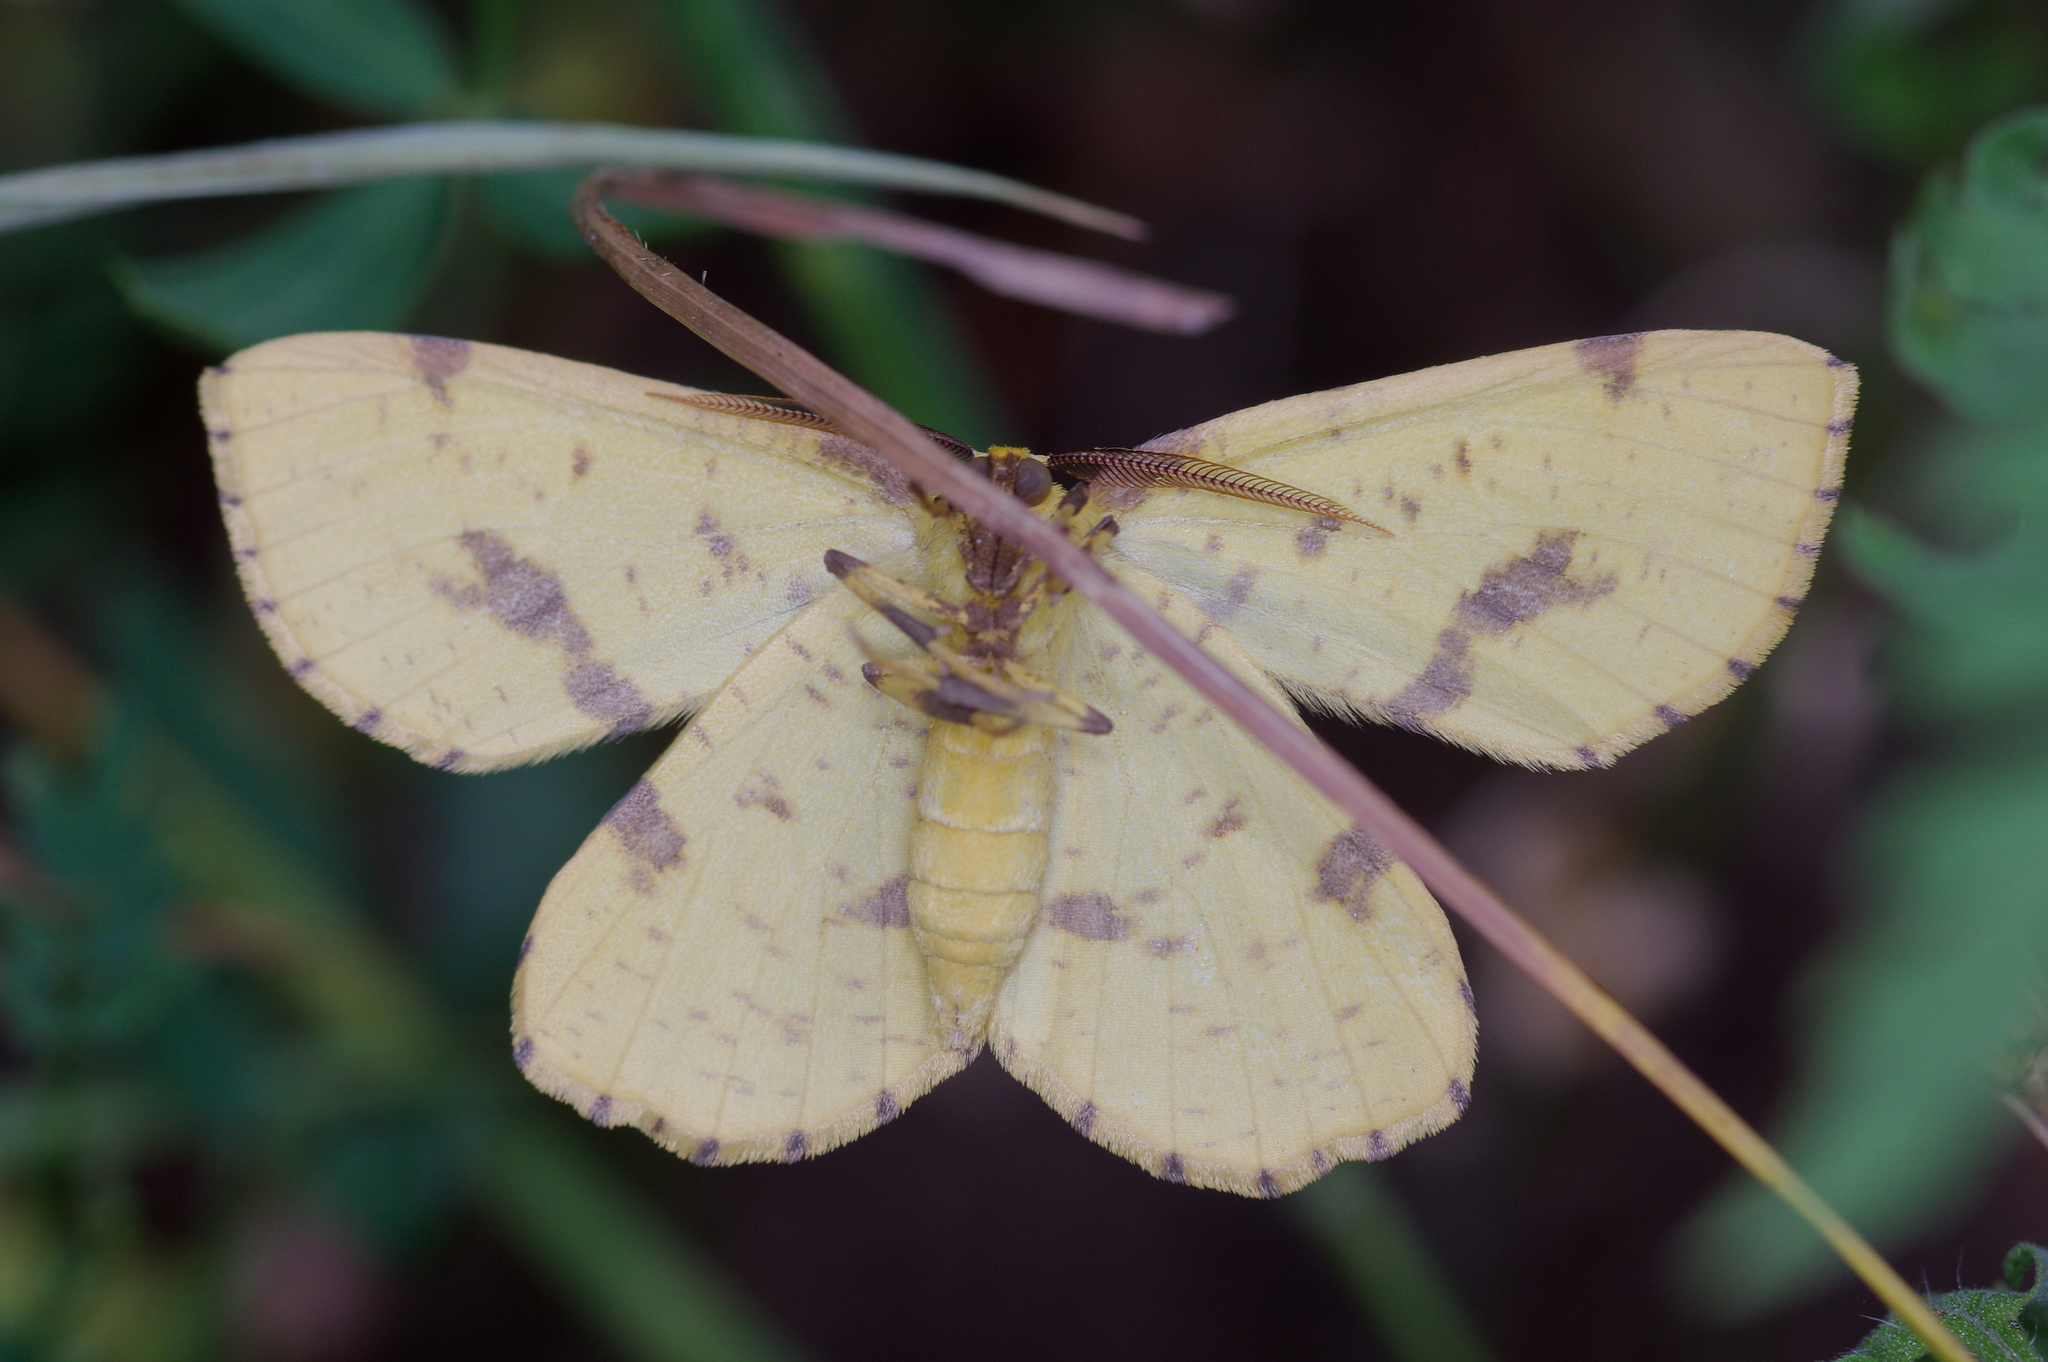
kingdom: Animalia
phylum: Arthropoda
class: Insecta
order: Lepidoptera
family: Geometridae
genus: Xanthotype
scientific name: Xanthotype
